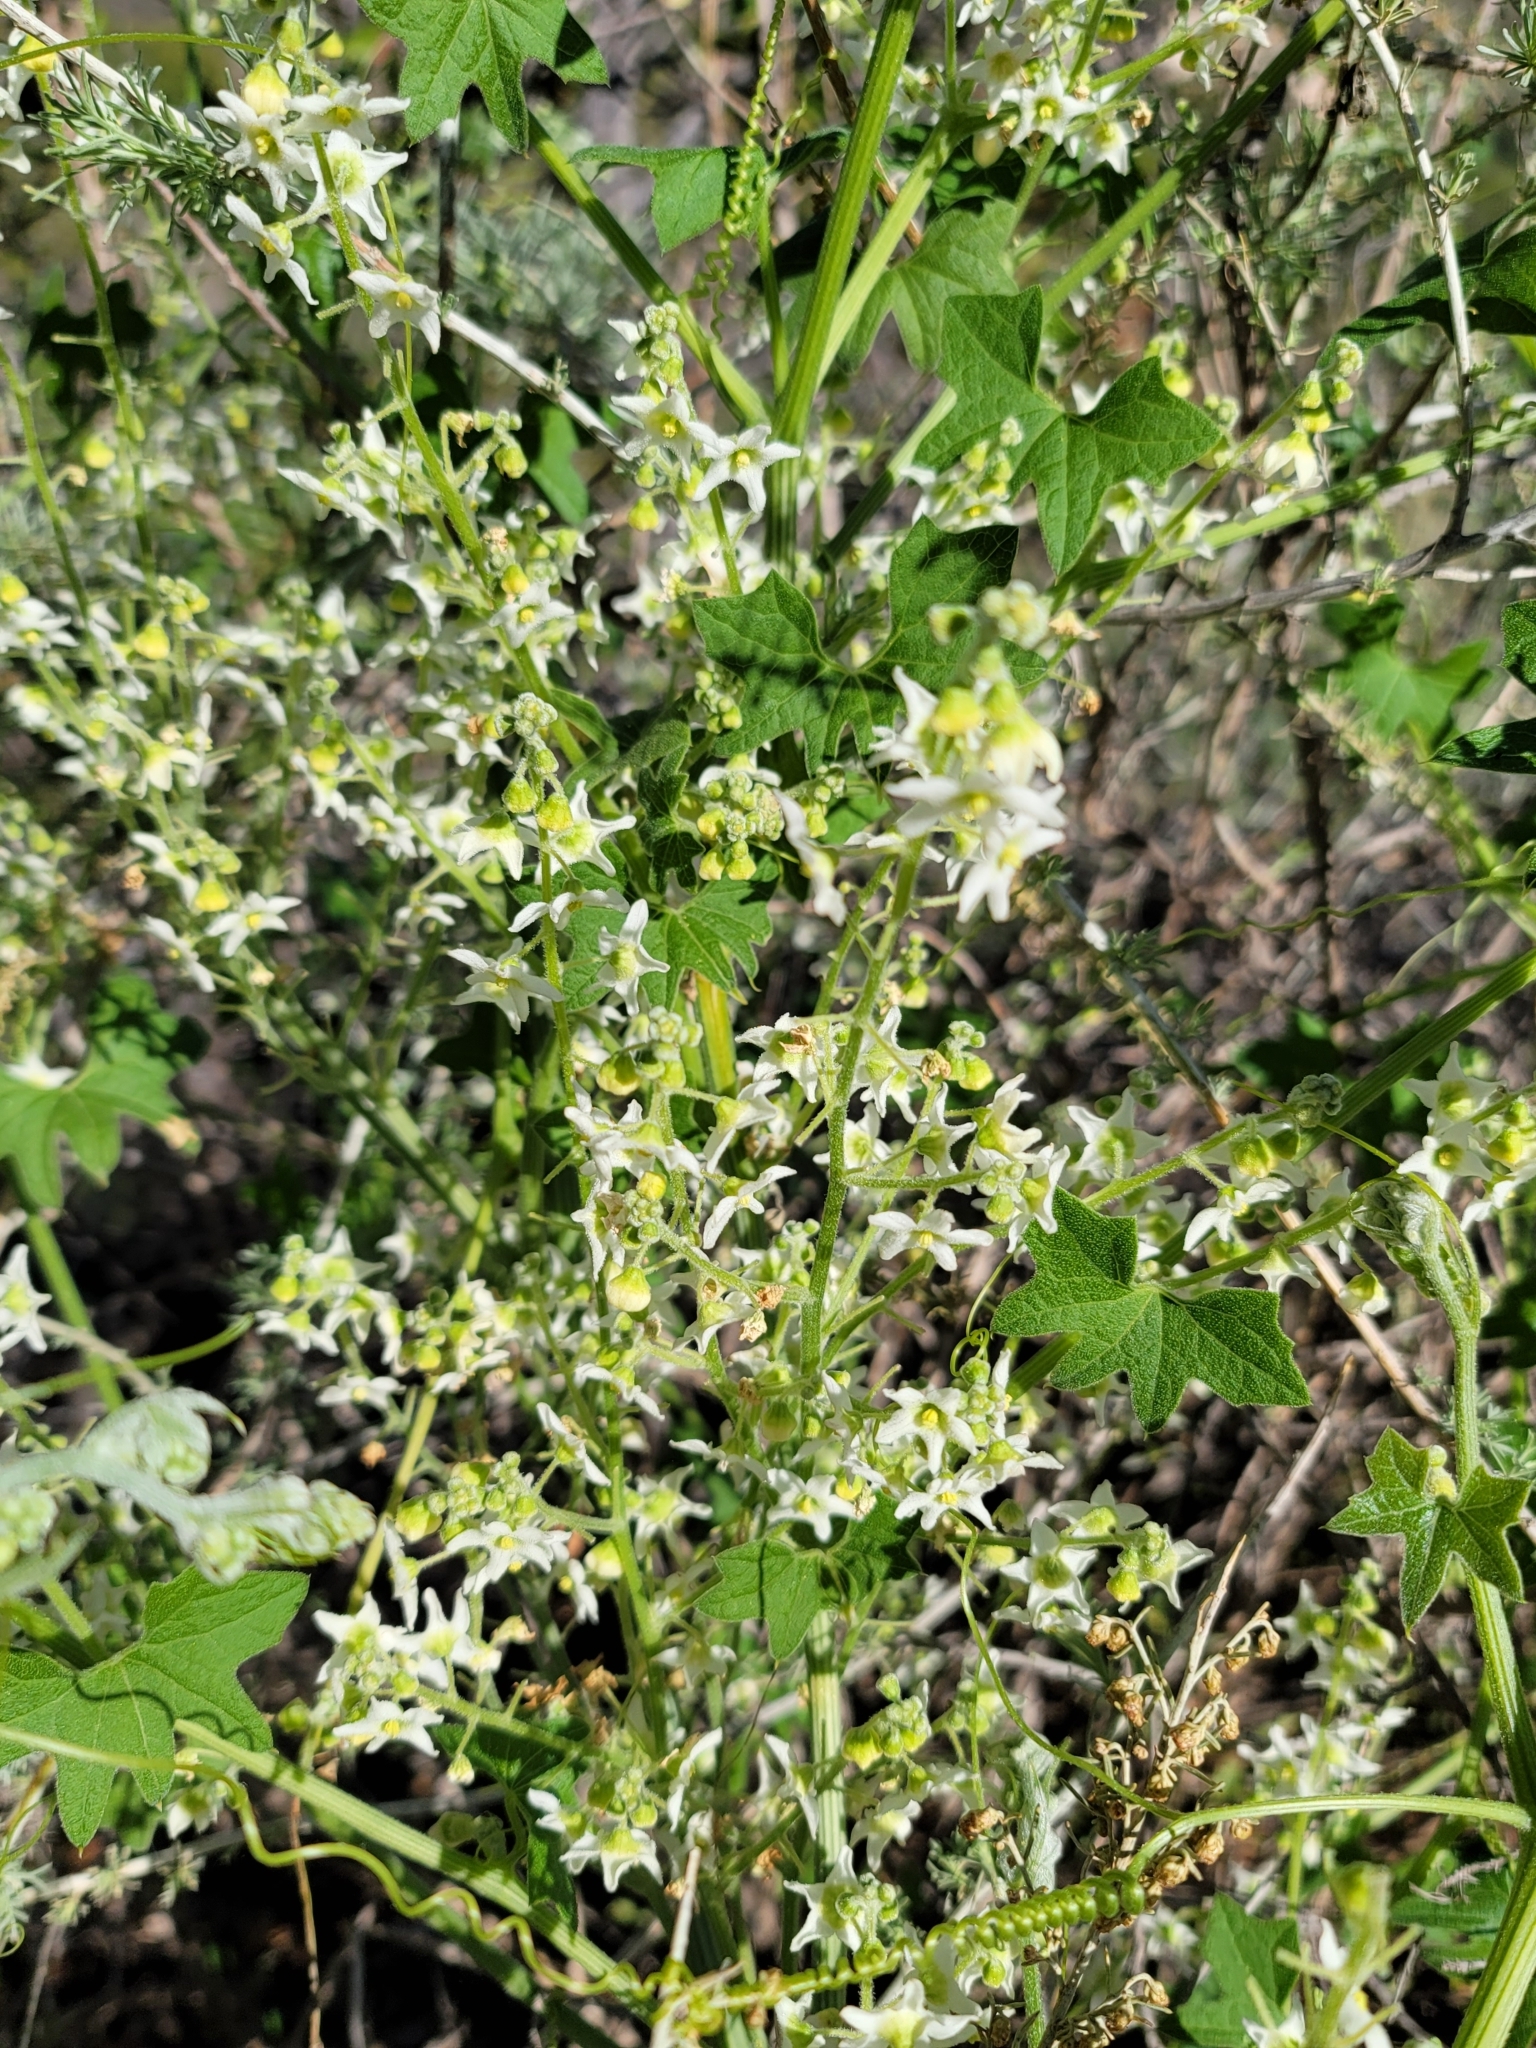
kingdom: Plantae
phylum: Tracheophyta
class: Magnoliopsida
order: Cucurbitales
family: Cucurbitaceae
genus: Marah
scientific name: Marah macrocarpa
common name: Cucamonga manroot
